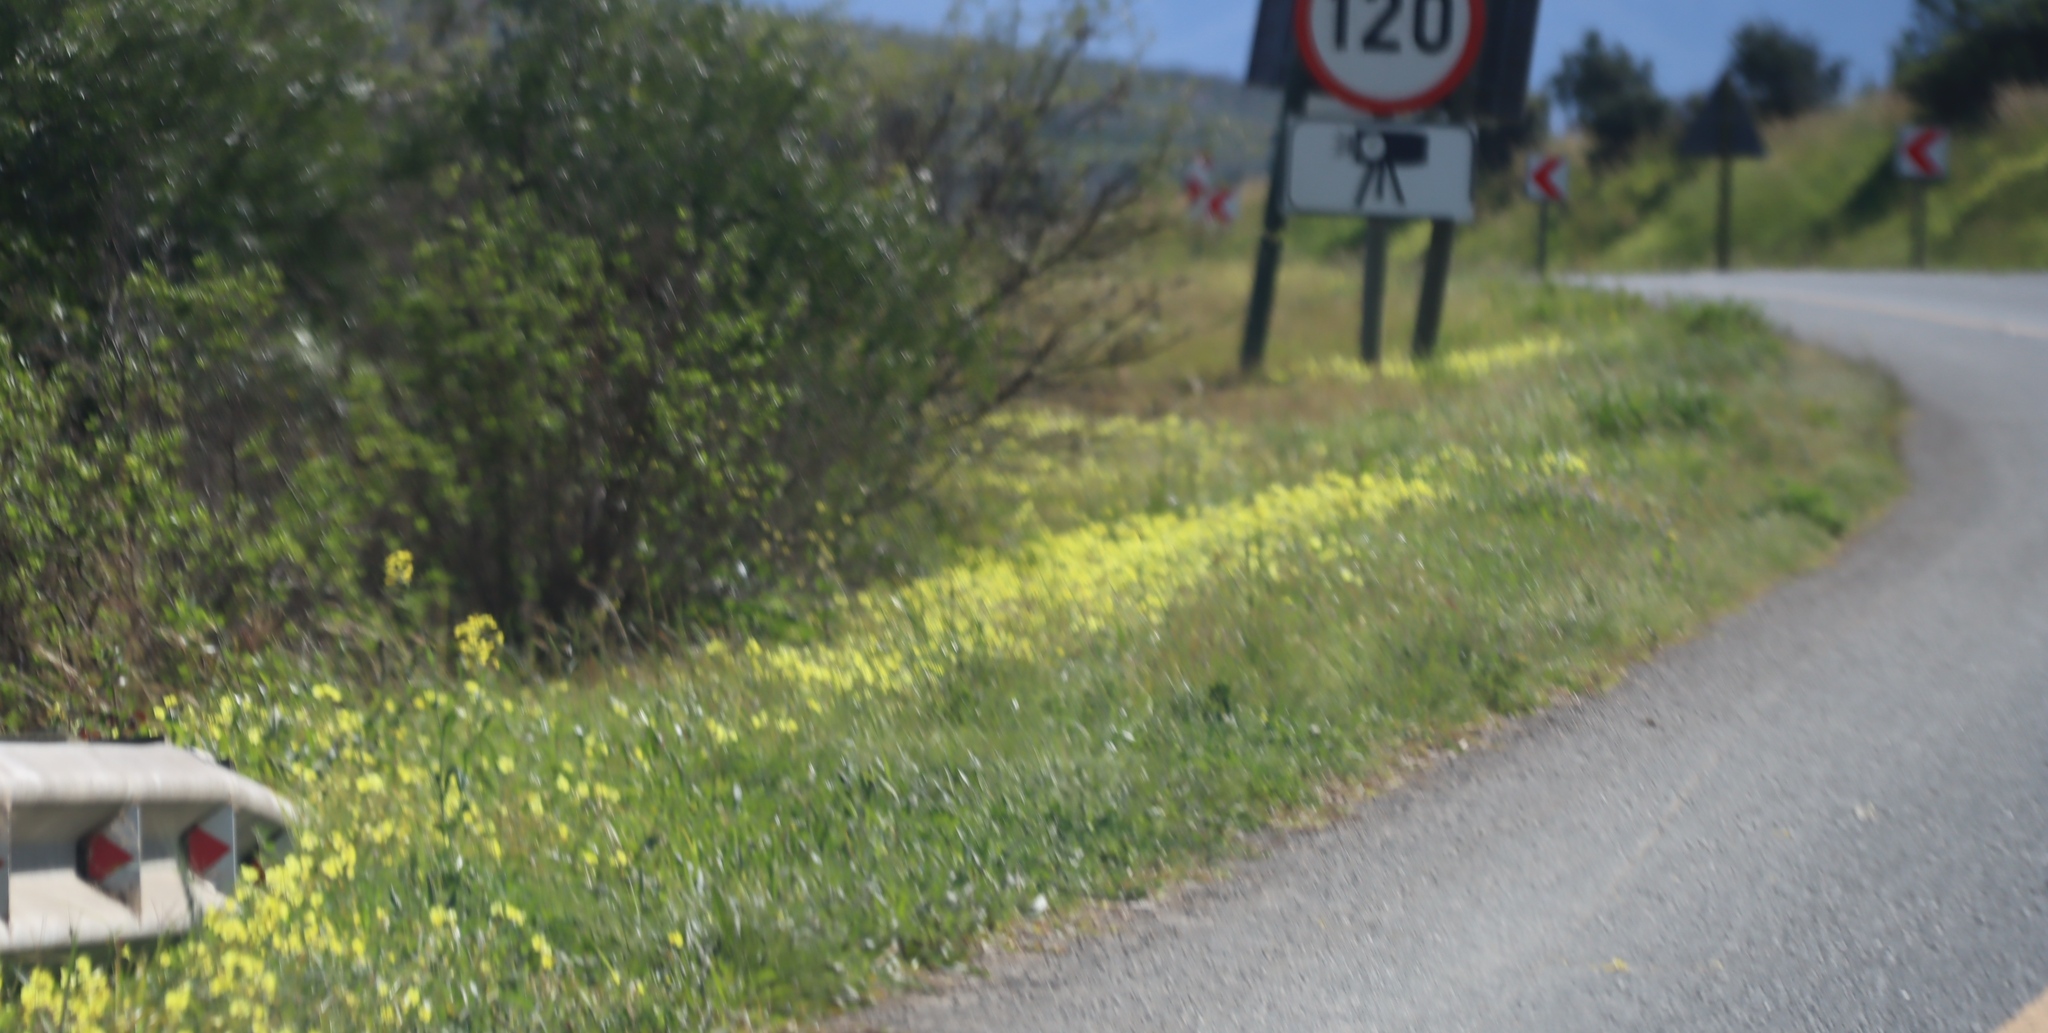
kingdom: Plantae
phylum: Tracheophyta
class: Magnoliopsida
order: Oxalidales
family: Oxalidaceae
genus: Oxalis
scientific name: Oxalis pes-caprae
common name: Bermuda-buttercup
